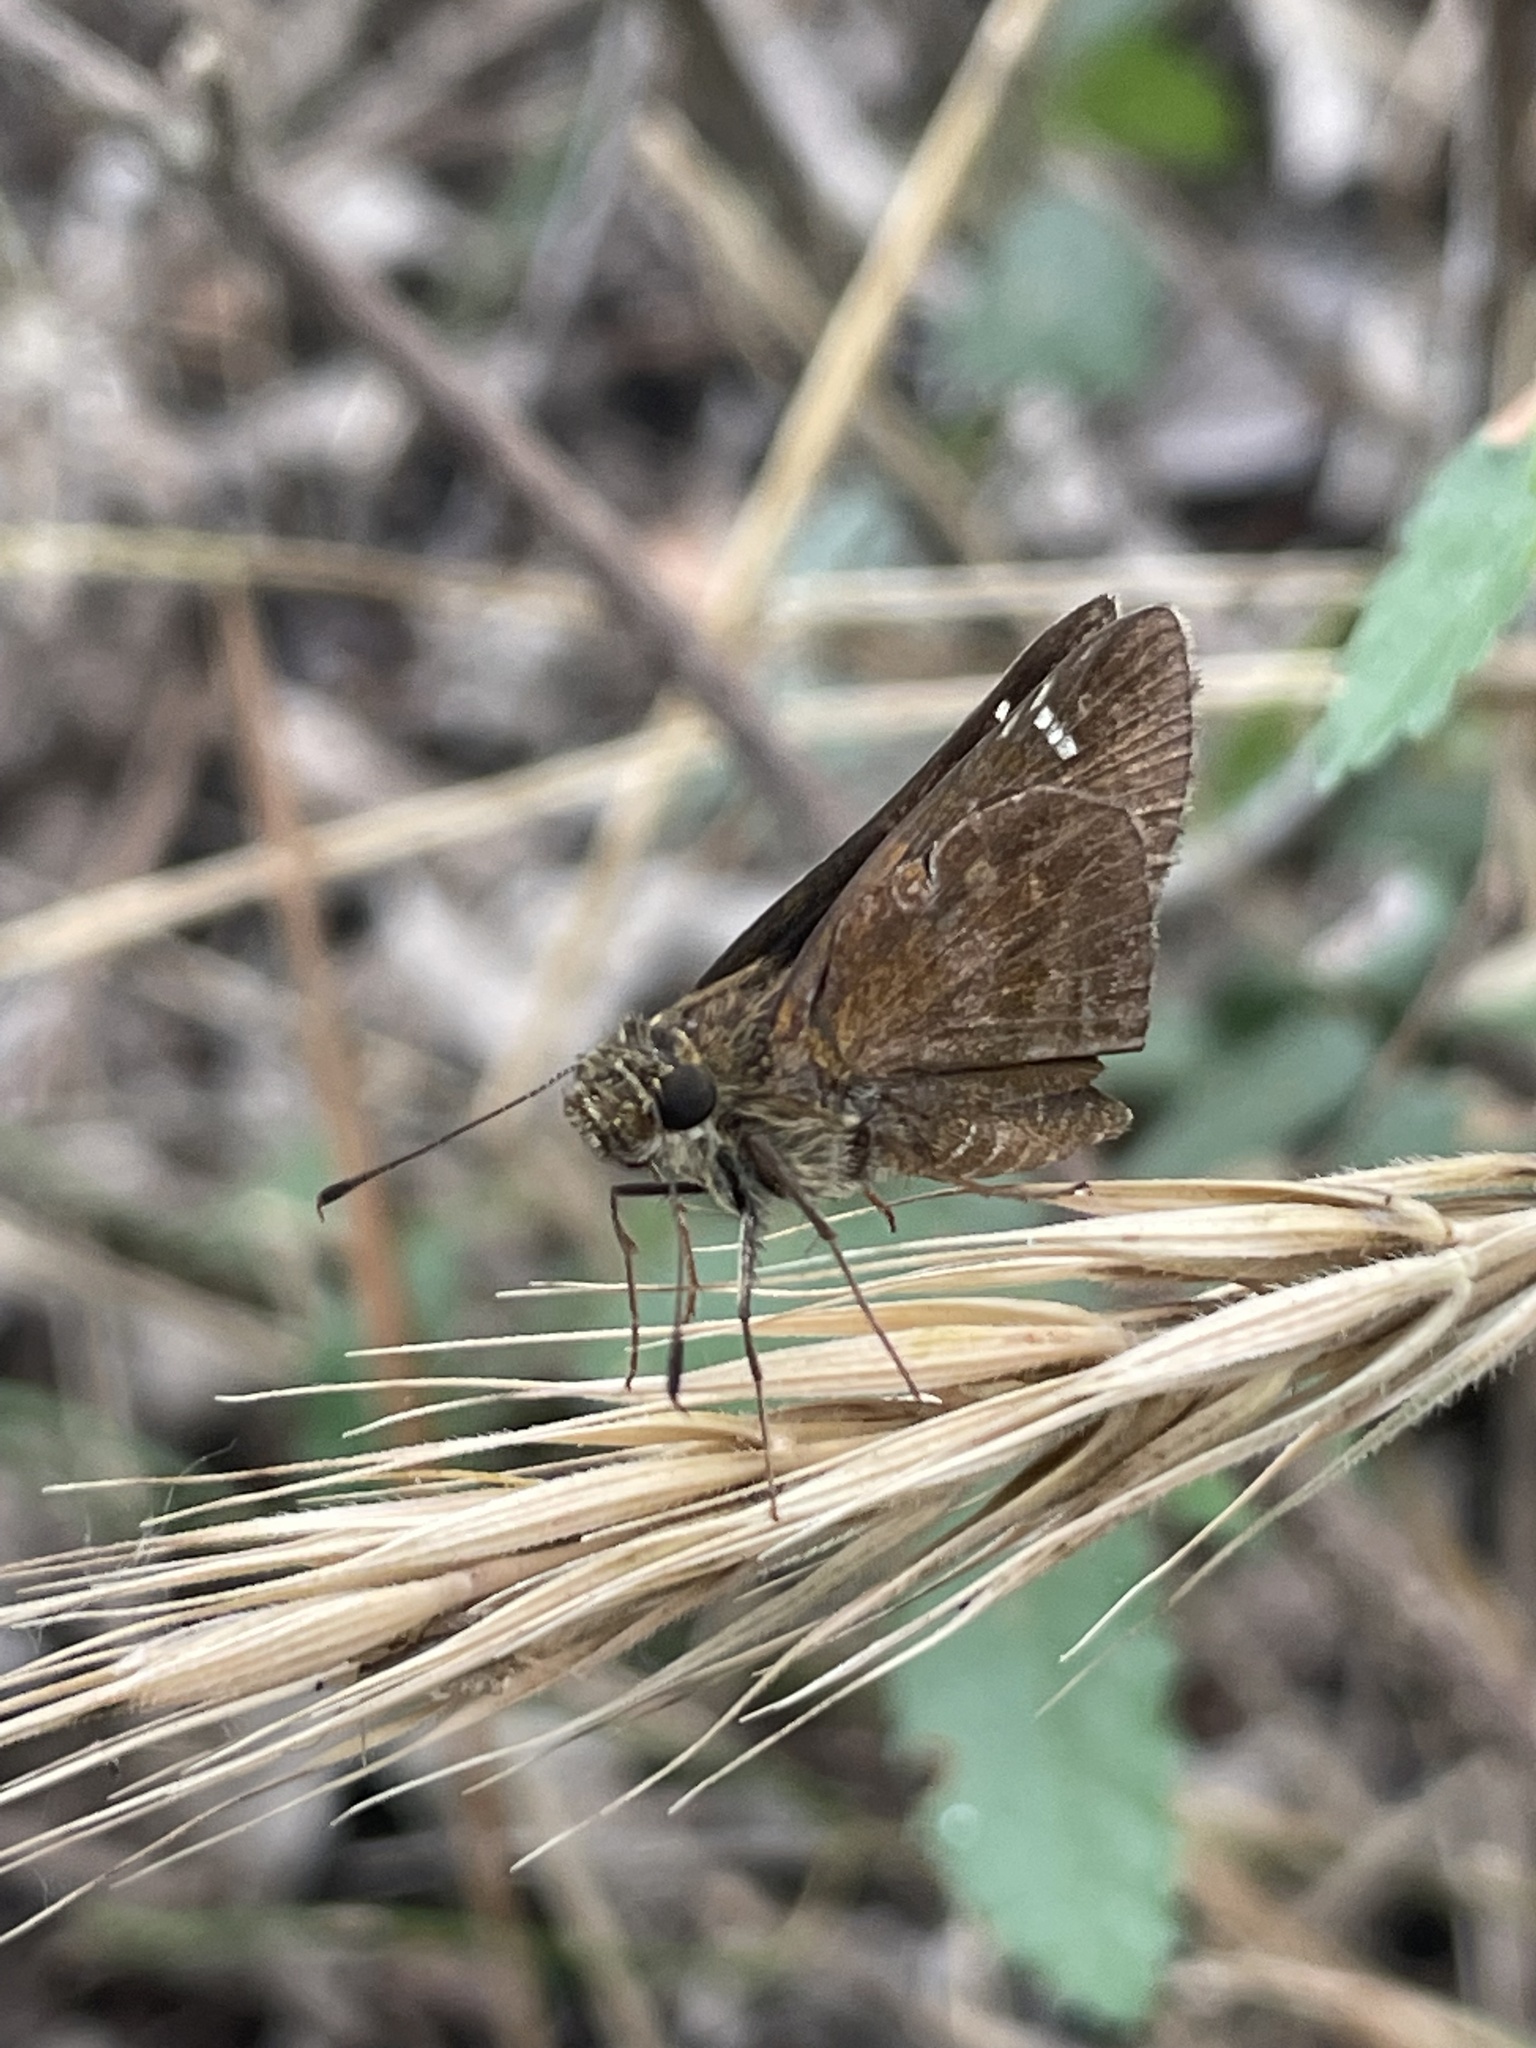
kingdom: Animalia
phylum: Arthropoda
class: Insecta
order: Lepidoptera
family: Hesperiidae
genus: Lerema
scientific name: Lerema accius
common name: Clouded skipper
